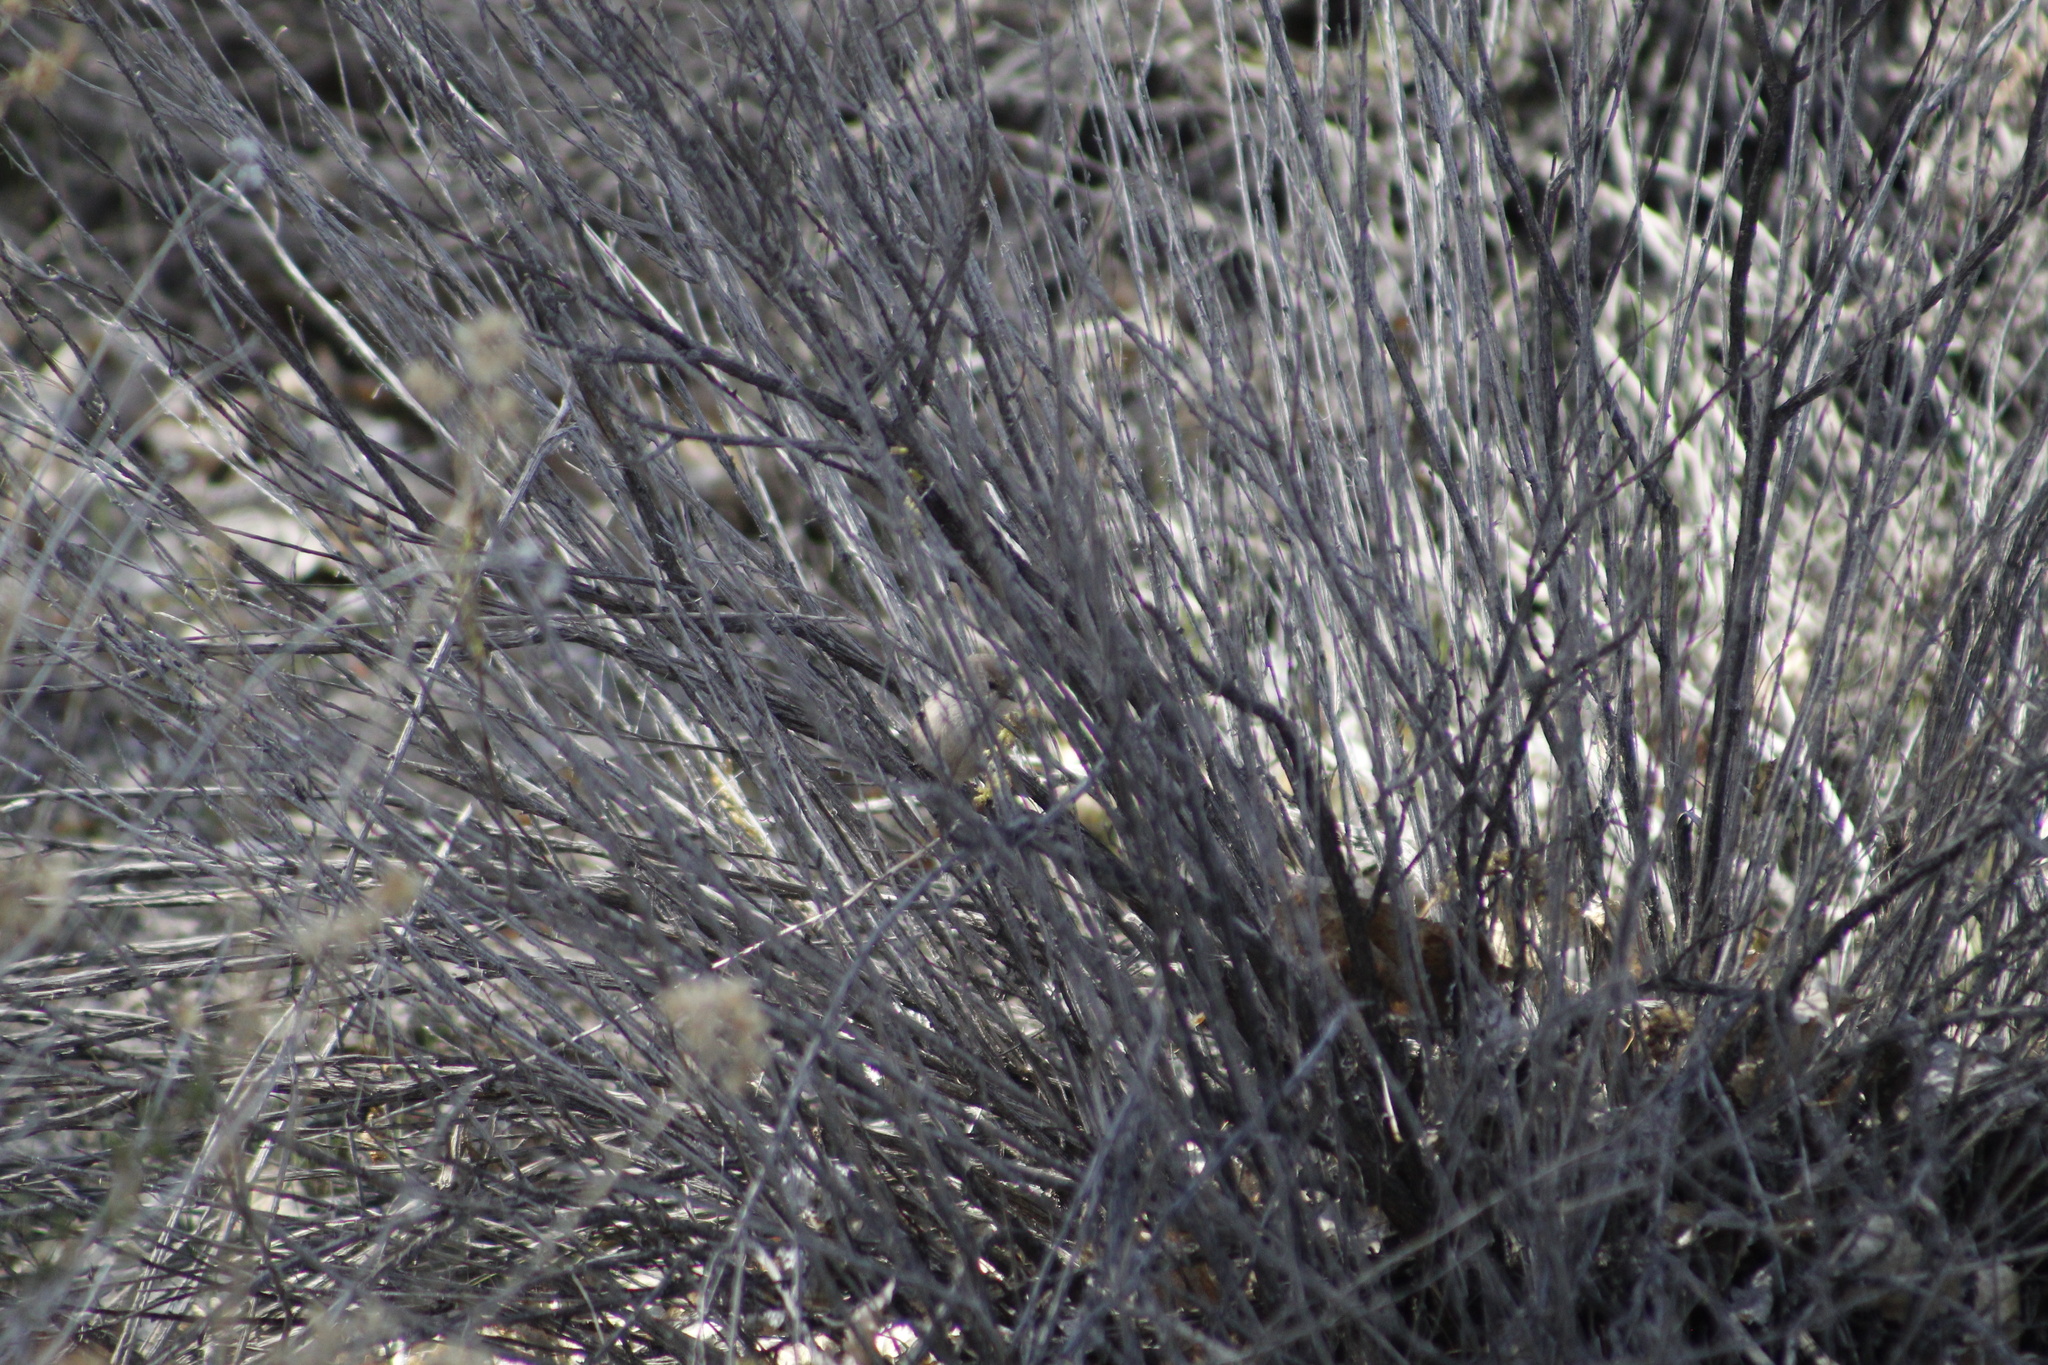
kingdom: Animalia
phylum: Chordata
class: Aves
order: Passeriformes
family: Aegithalidae
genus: Psaltriparus
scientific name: Psaltriparus minimus
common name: American bushtit
